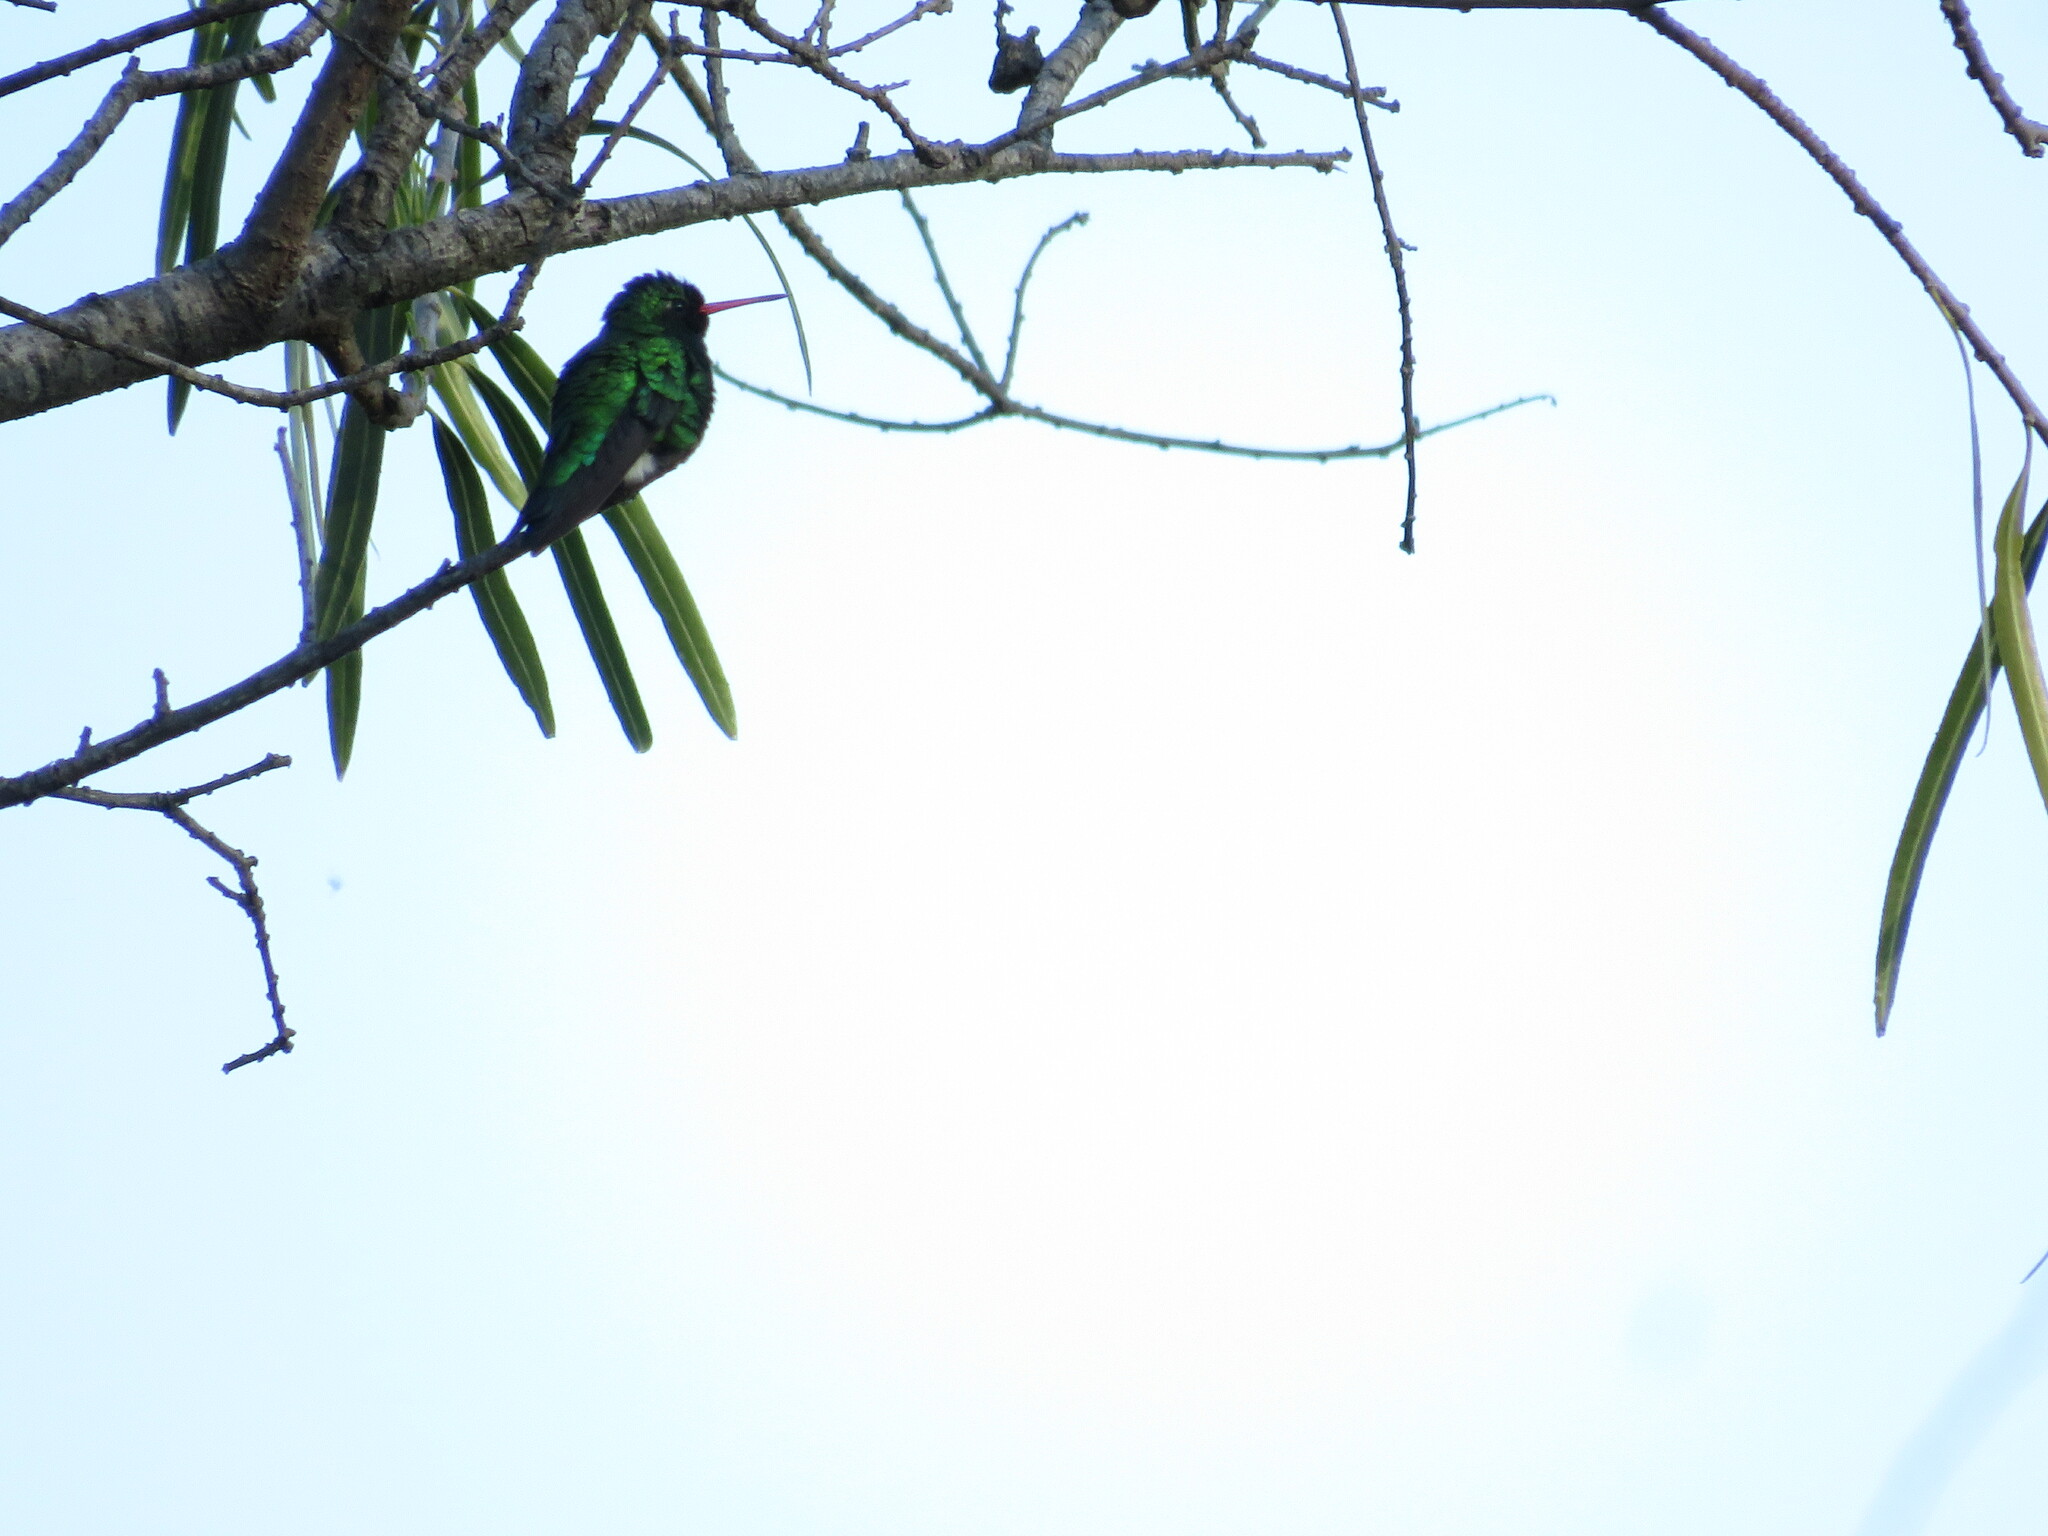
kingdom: Animalia
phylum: Chordata
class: Aves
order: Apodiformes
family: Trochilidae
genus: Chlorostilbon
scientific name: Chlorostilbon lucidus
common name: Glittering-bellied emerald
